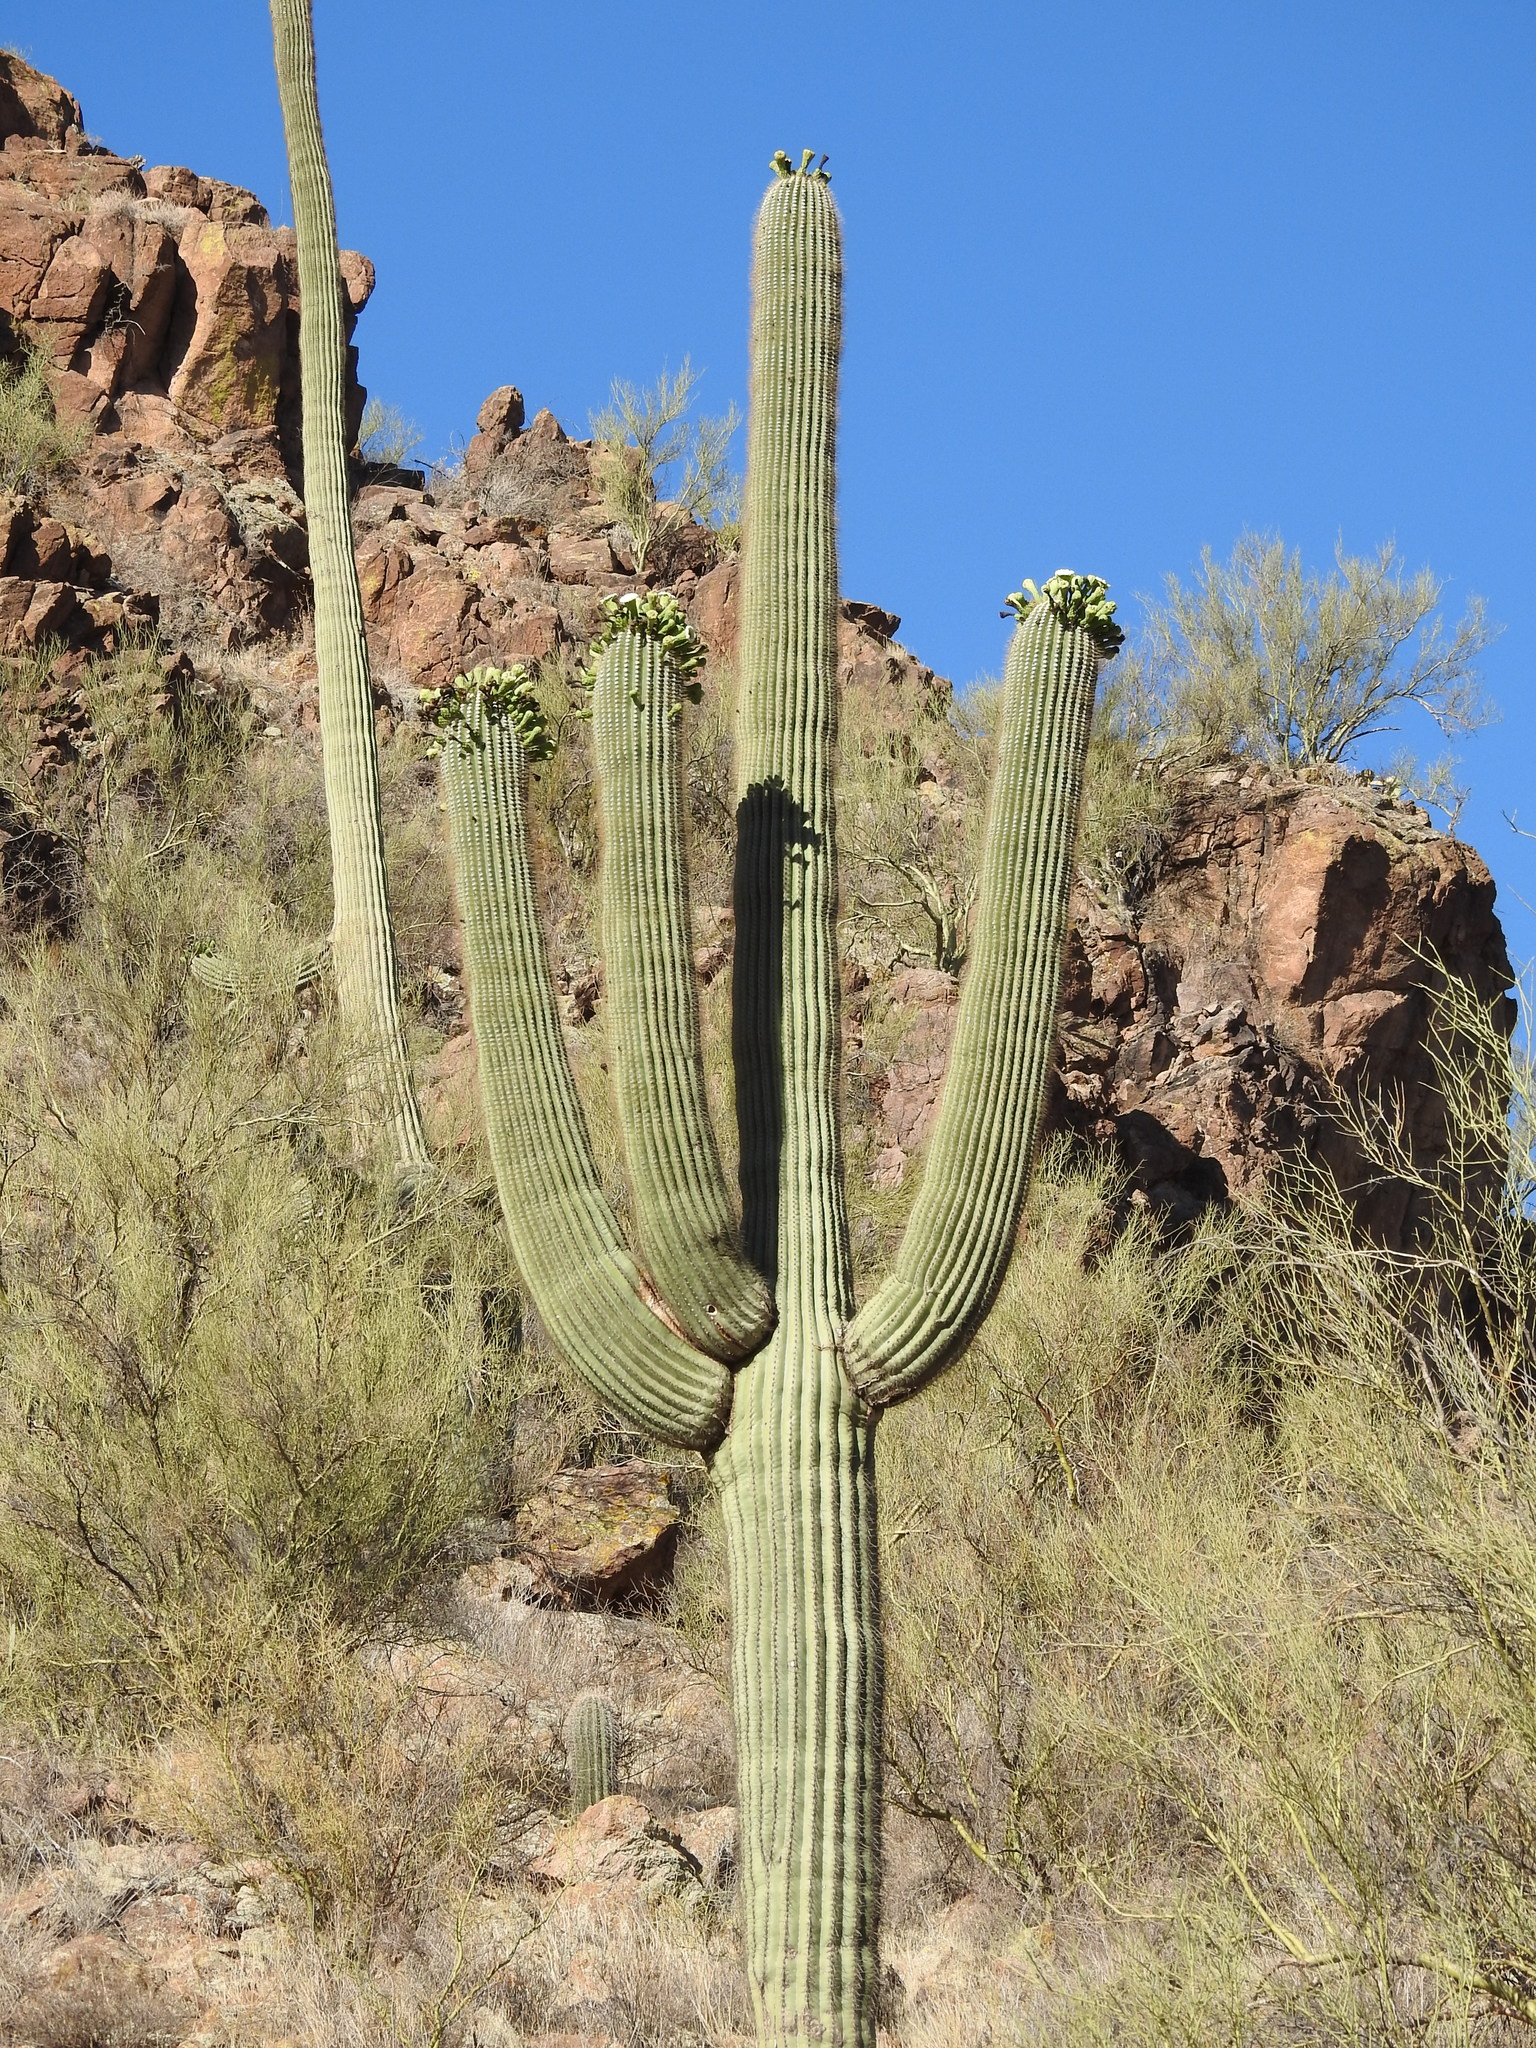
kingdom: Plantae
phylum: Tracheophyta
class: Magnoliopsida
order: Caryophyllales
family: Cactaceae
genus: Carnegiea
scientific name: Carnegiea gigantea
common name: Saguaro
